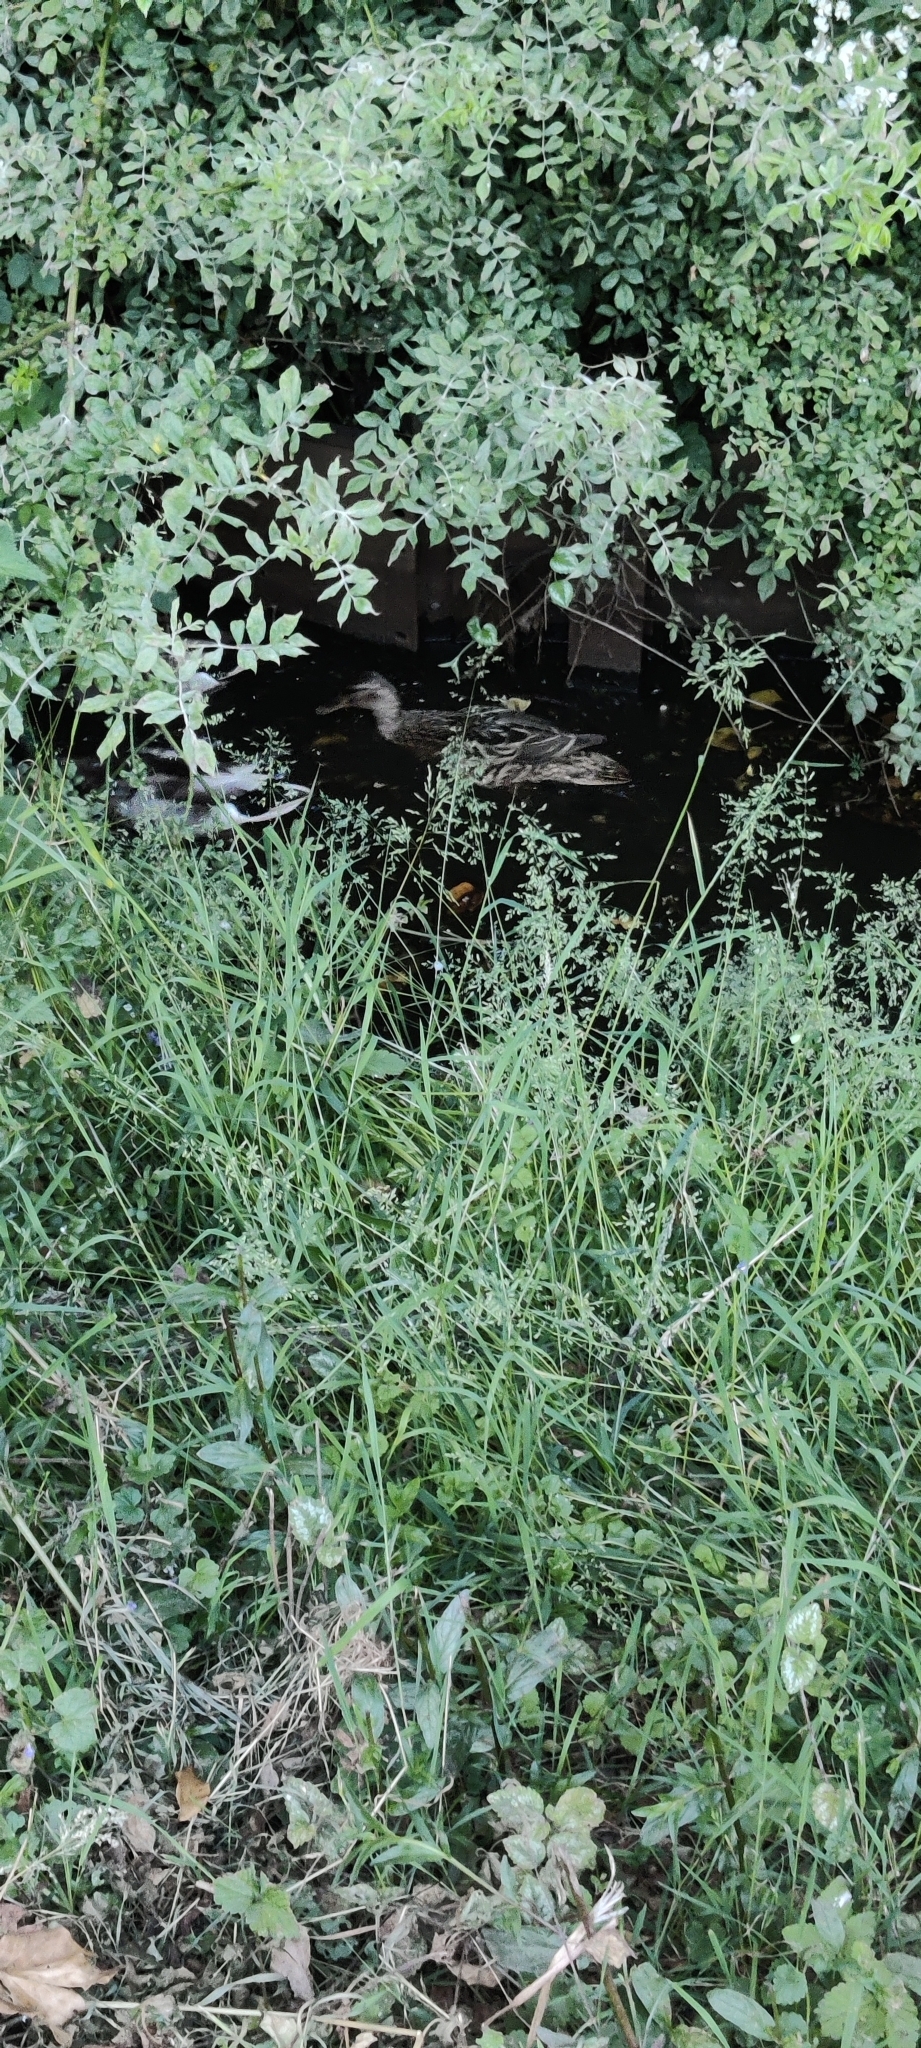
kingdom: Animalia
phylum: Chordata
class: Aves
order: Anseriformes
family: Anatidae
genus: Anas
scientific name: Anas platyrhynchos
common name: Mallard
